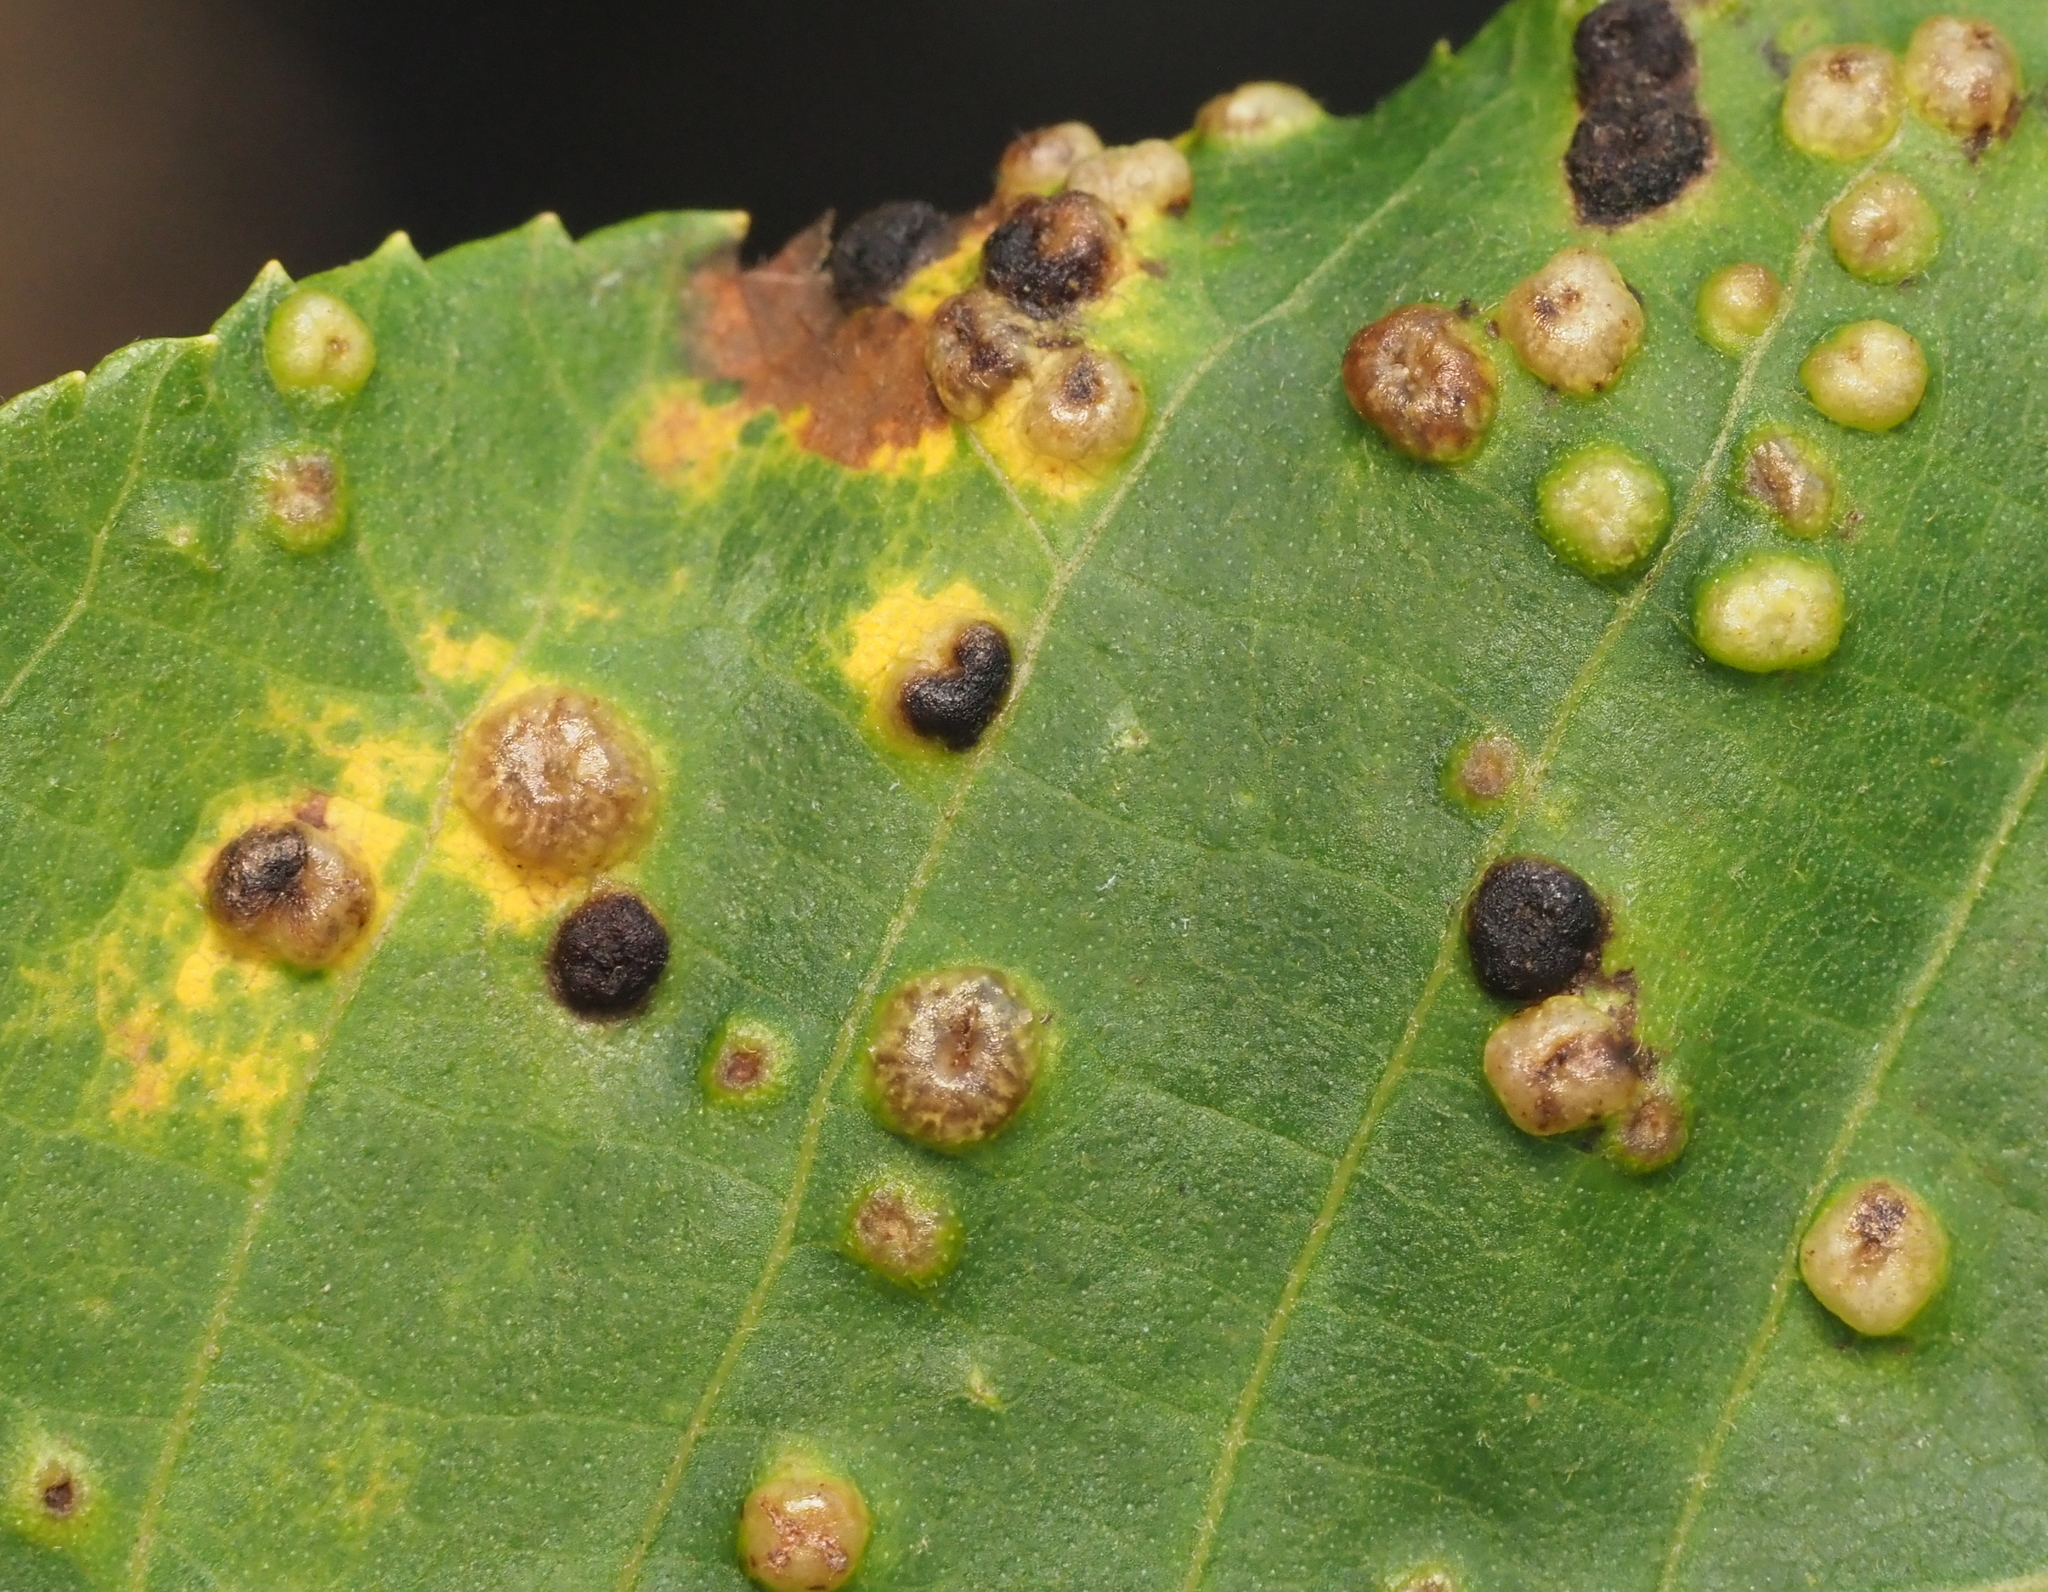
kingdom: Animalia
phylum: Arthropoda
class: Insecta
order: Hemiptera
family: Phylloxeridae
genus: Phylloxera
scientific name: Phylloxera caryae-semen
